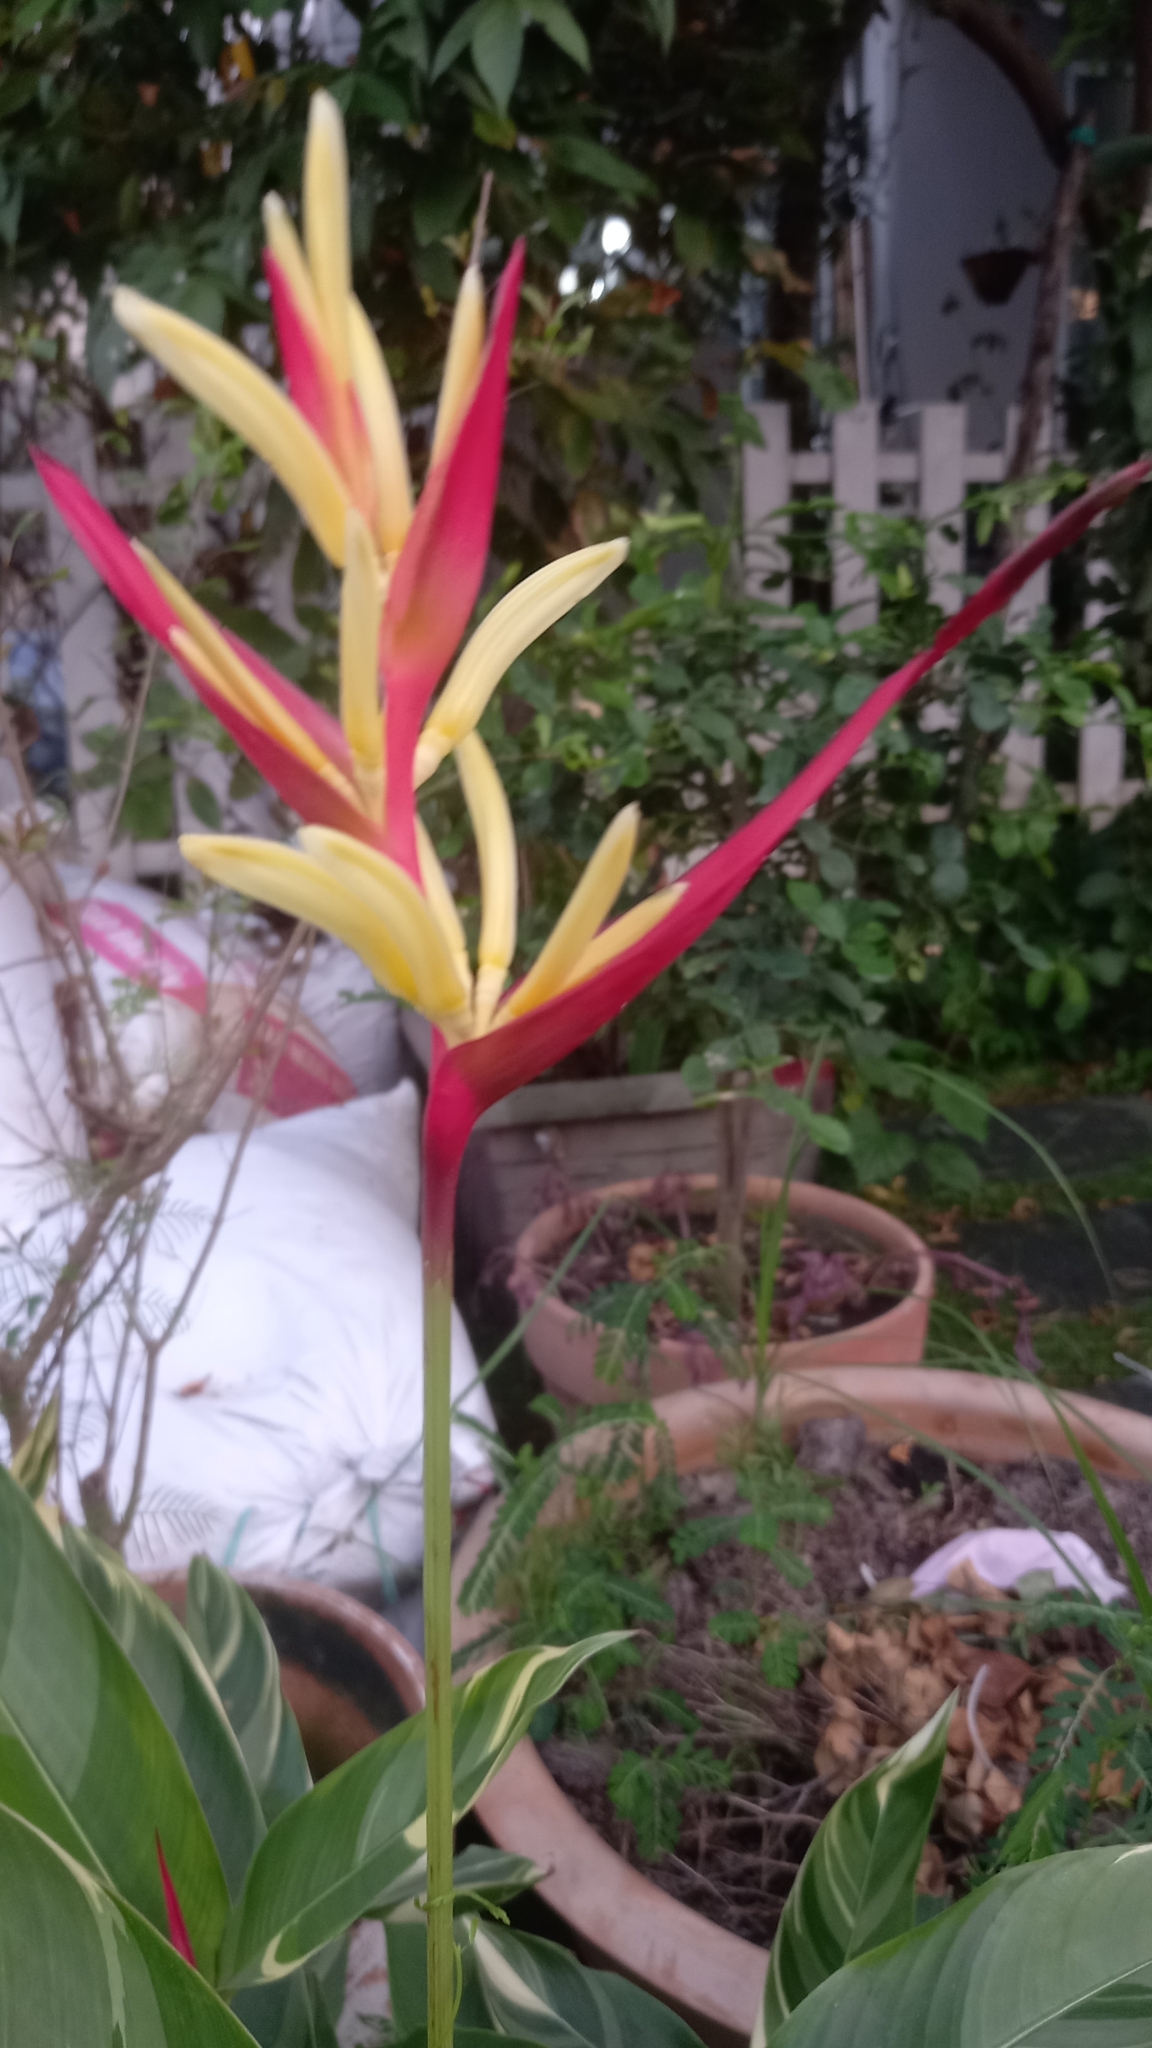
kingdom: Plantae
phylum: Tracheophyta
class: Liliopsida
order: Zingiberales
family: Heliconiaceae
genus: Heliconia
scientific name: Heliconia psittacorum
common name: Parrot's-flower
